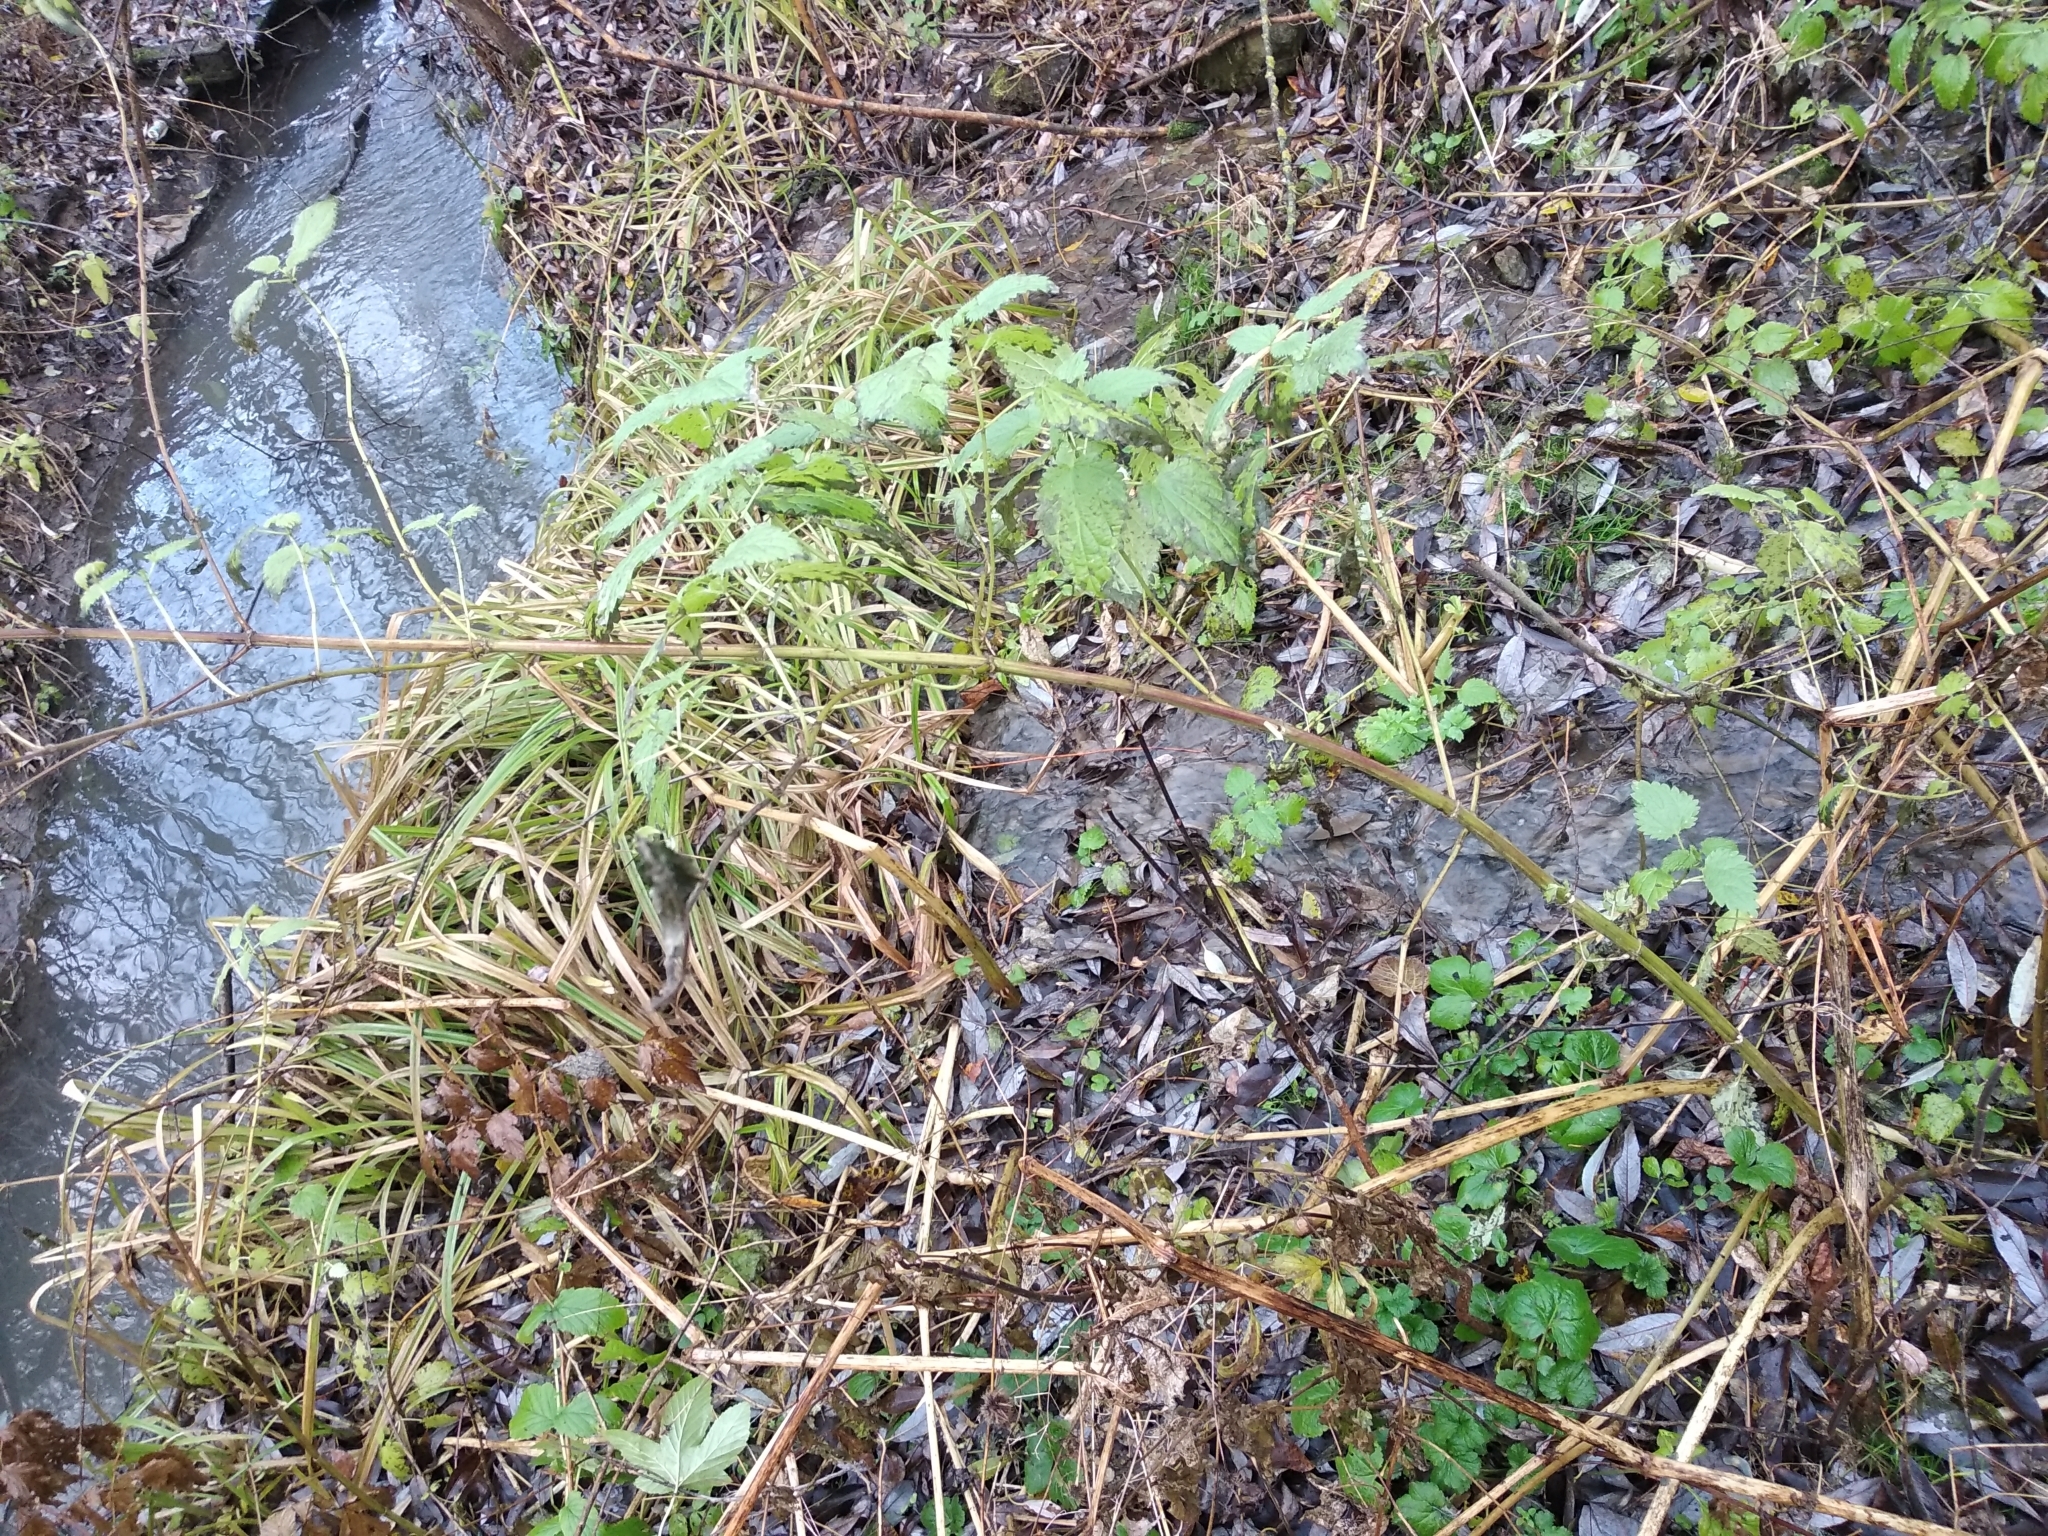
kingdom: Plantae
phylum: Tracheophyta
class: Magnoliopsida
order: Rosales
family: Urticaceae
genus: Urtica
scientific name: Urtica dioica
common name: Common nettle
